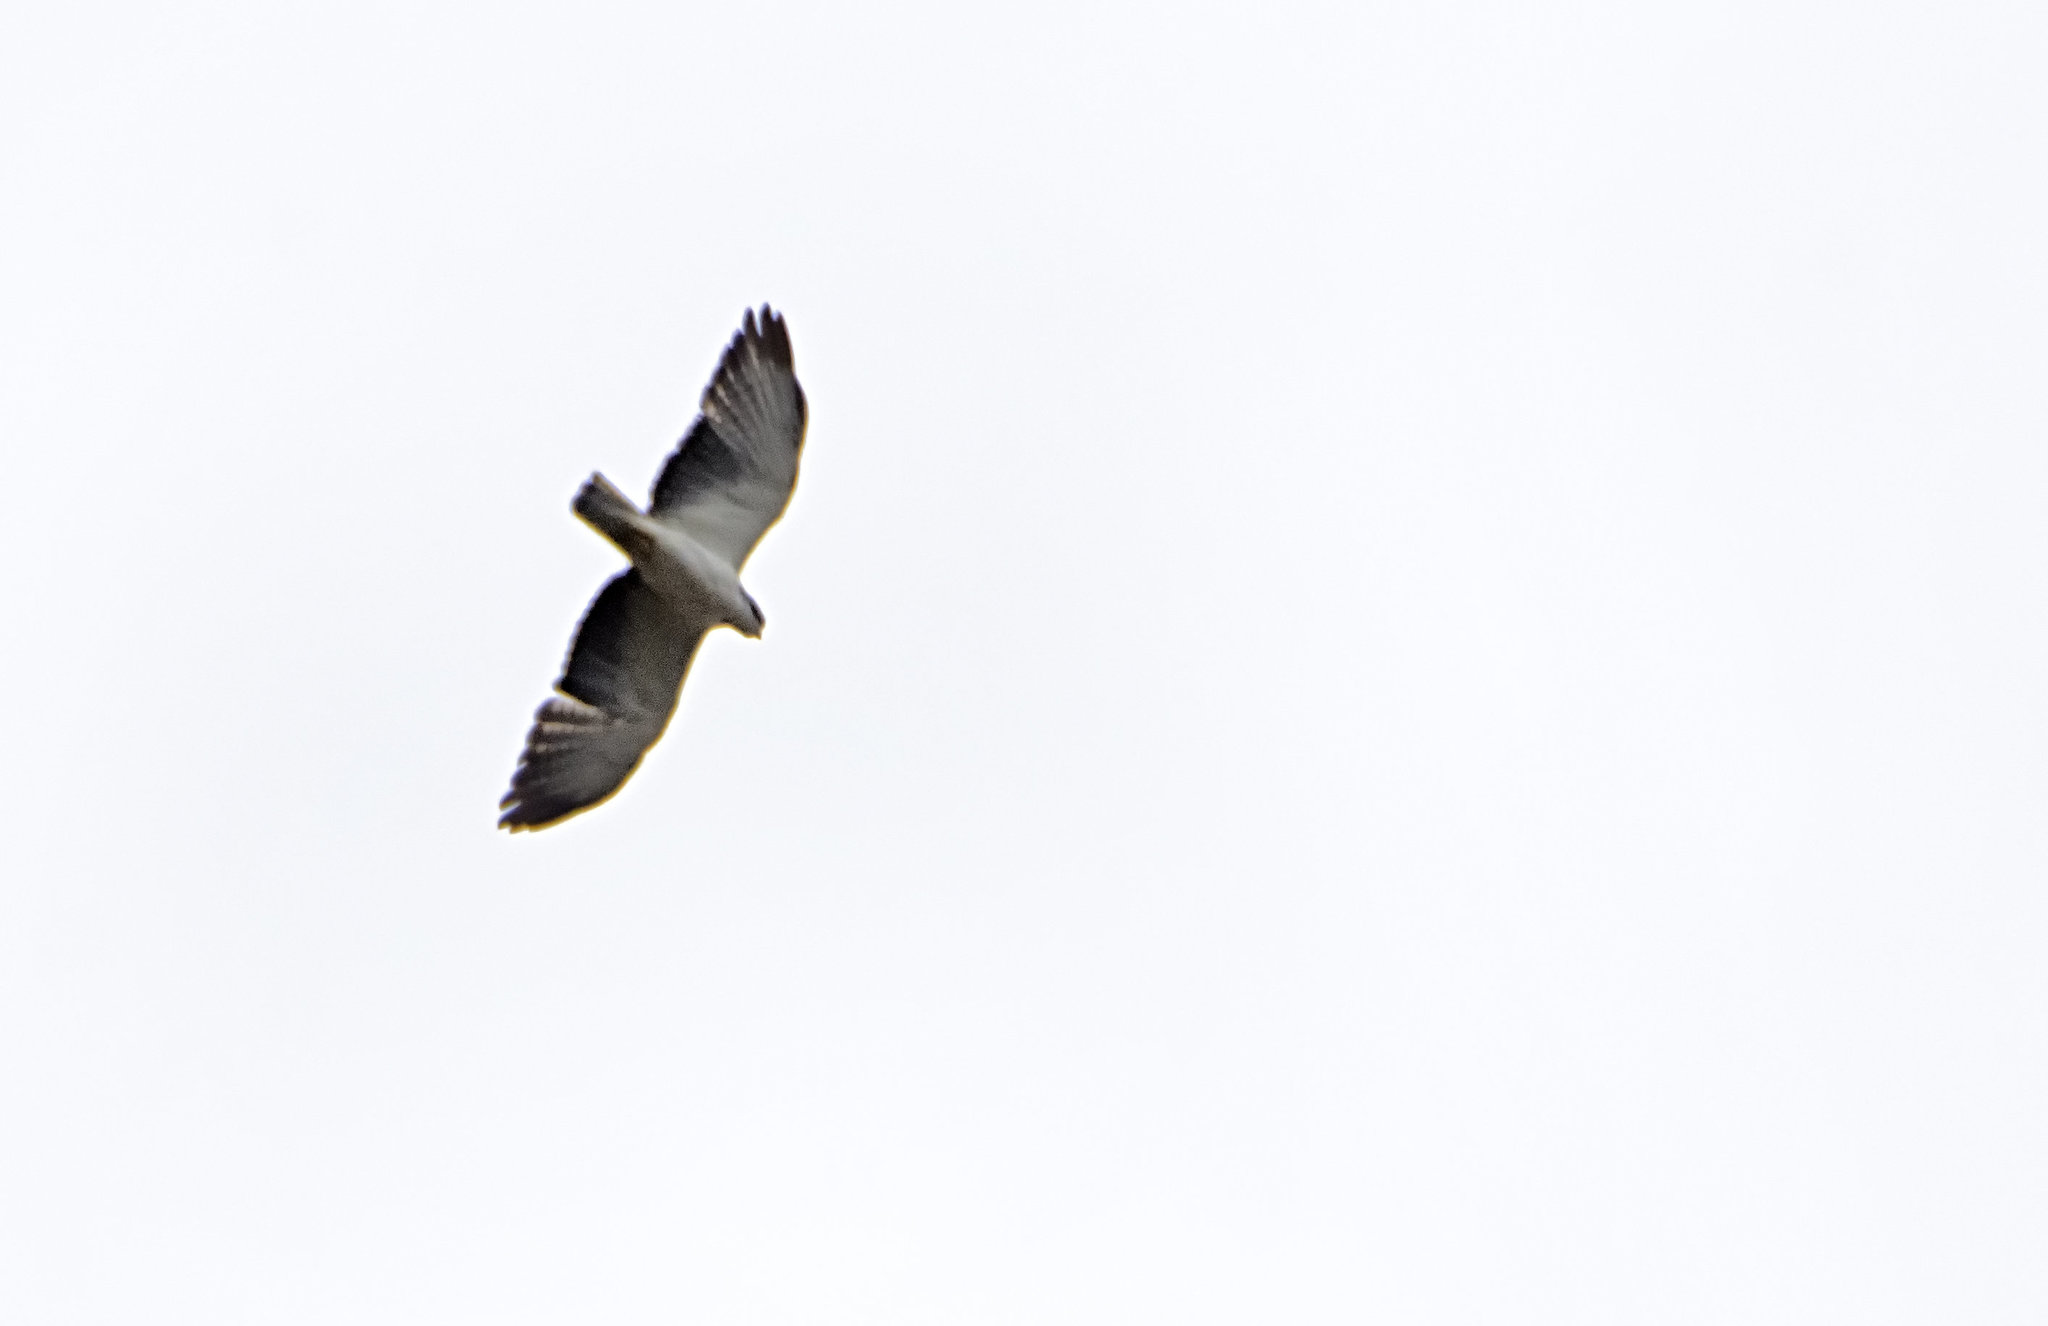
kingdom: Animalia
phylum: Chordata
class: Aves
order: Accipitriformes
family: Accipitridae
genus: Buteo
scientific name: Buteo brachyurus
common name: Short-tailed hawk
